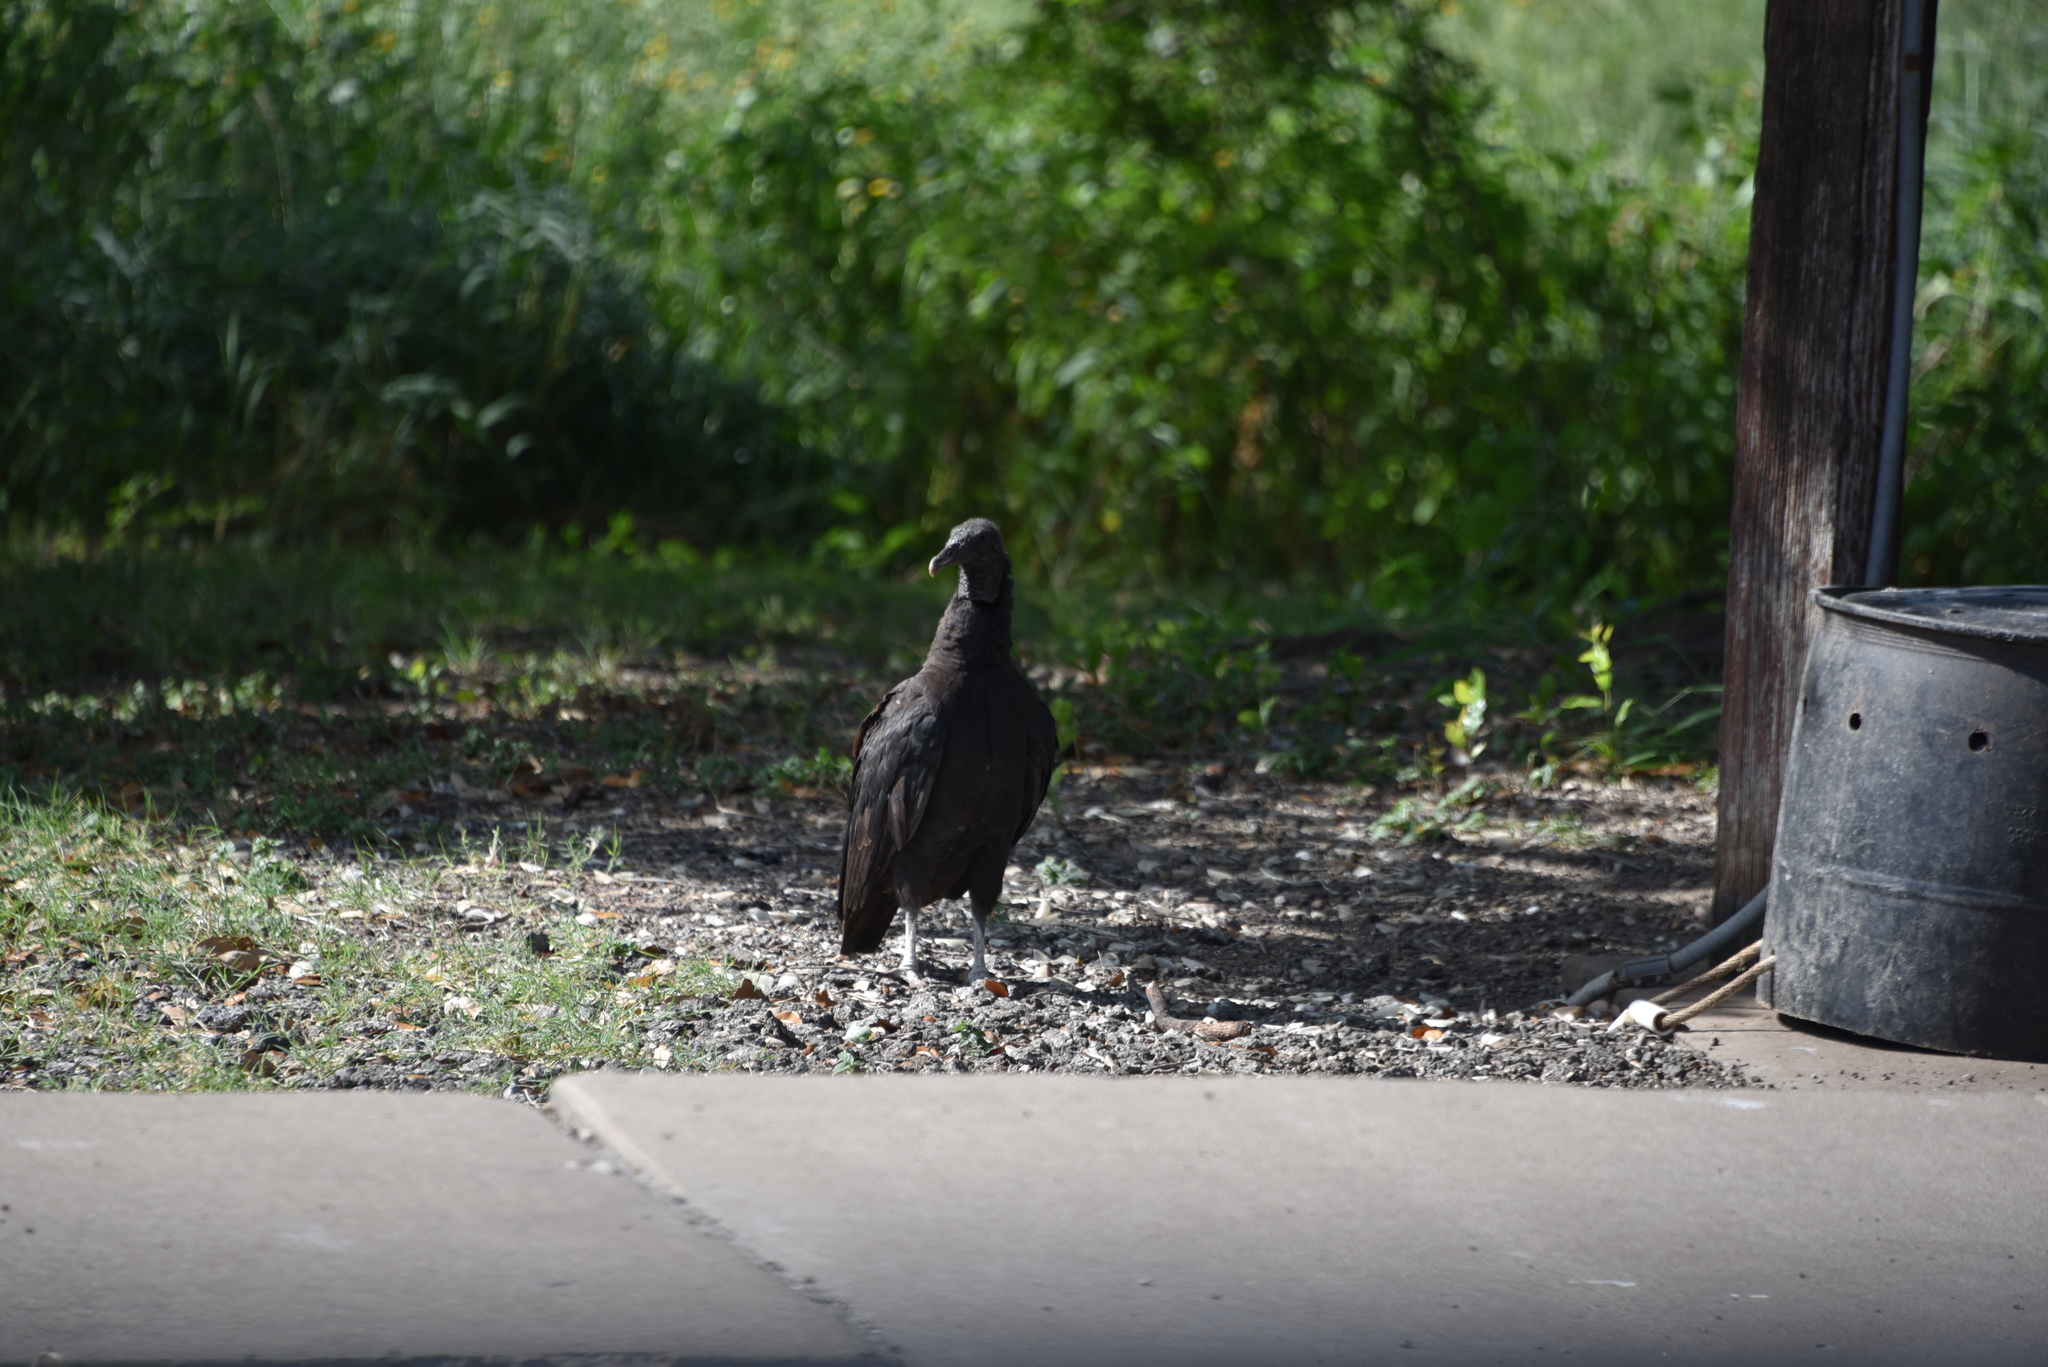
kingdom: Animalia
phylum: Chordata
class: Aves
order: Accipitriformes
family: Cathartidae
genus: Coragyps
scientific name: Coragyps atratus
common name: Black vulture
